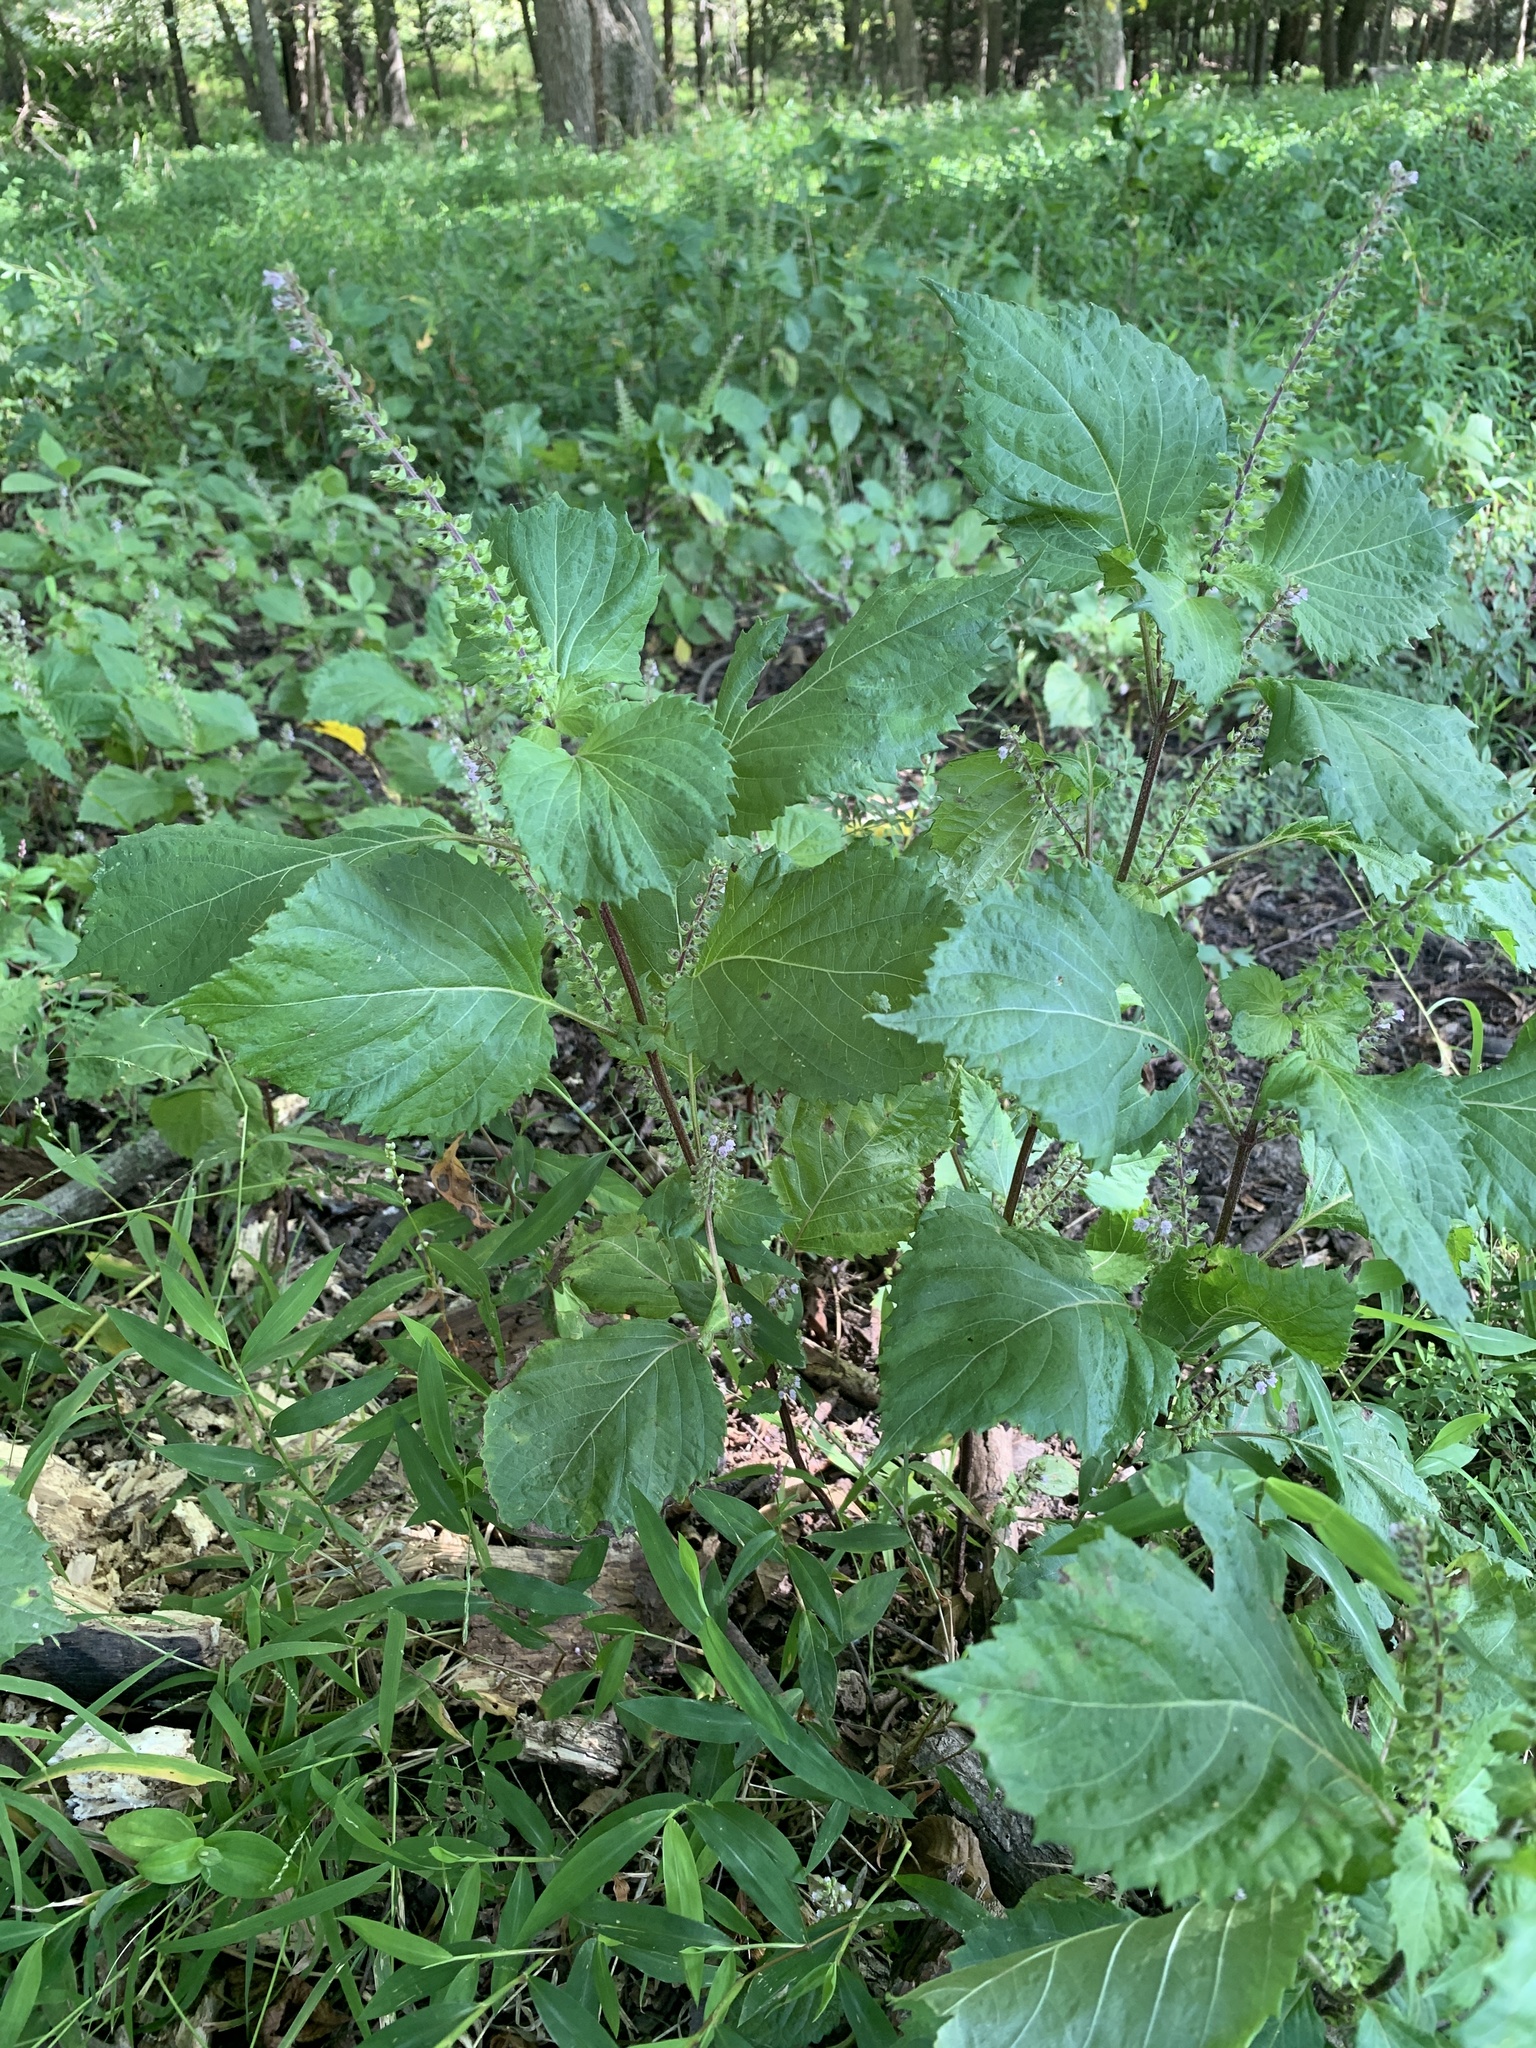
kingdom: Plantae
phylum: Tracheophyta
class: Magnoliopsida
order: Lamiales
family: Lamiaceae
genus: Perilla
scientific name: Perilla frutescens
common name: Perilla
